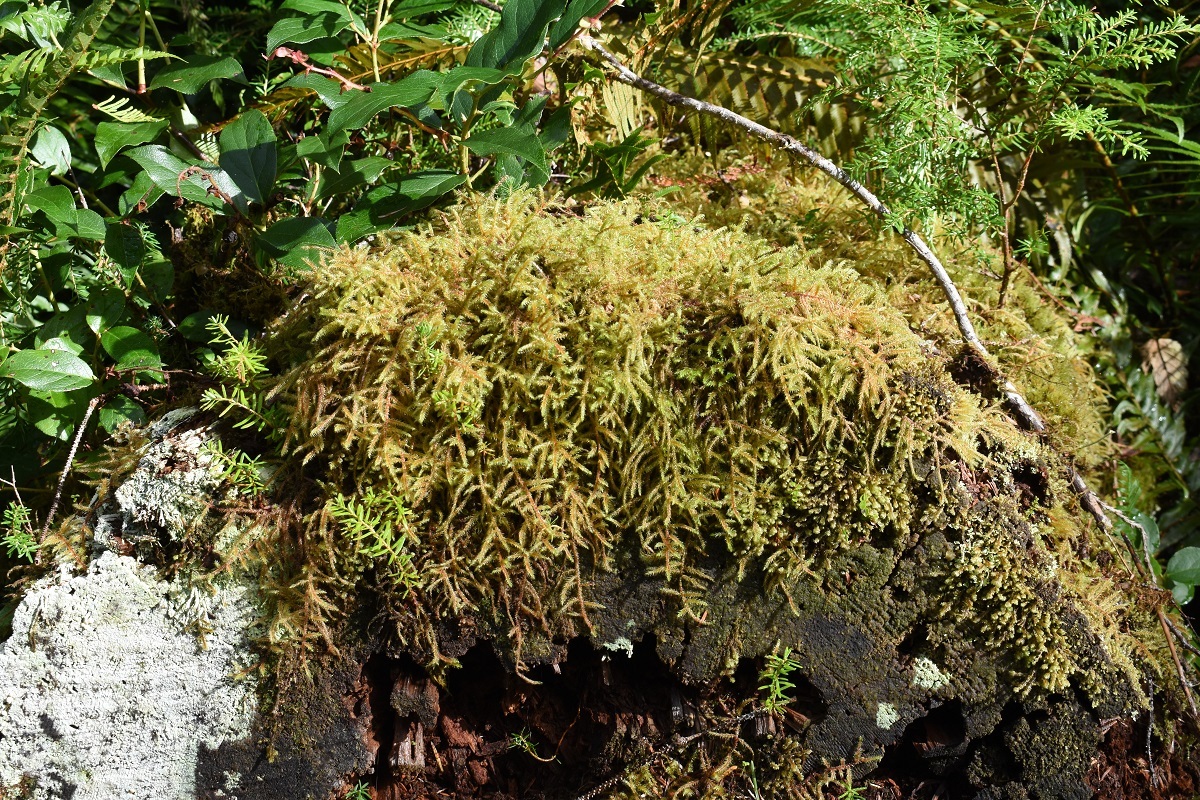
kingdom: Plantae
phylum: Bryophyta
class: Bryopsida
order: Hypnales
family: Hylocomiaceae
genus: Rhytidiadelphus
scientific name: Rhytidiadelphus loreus
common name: Lanky moss
